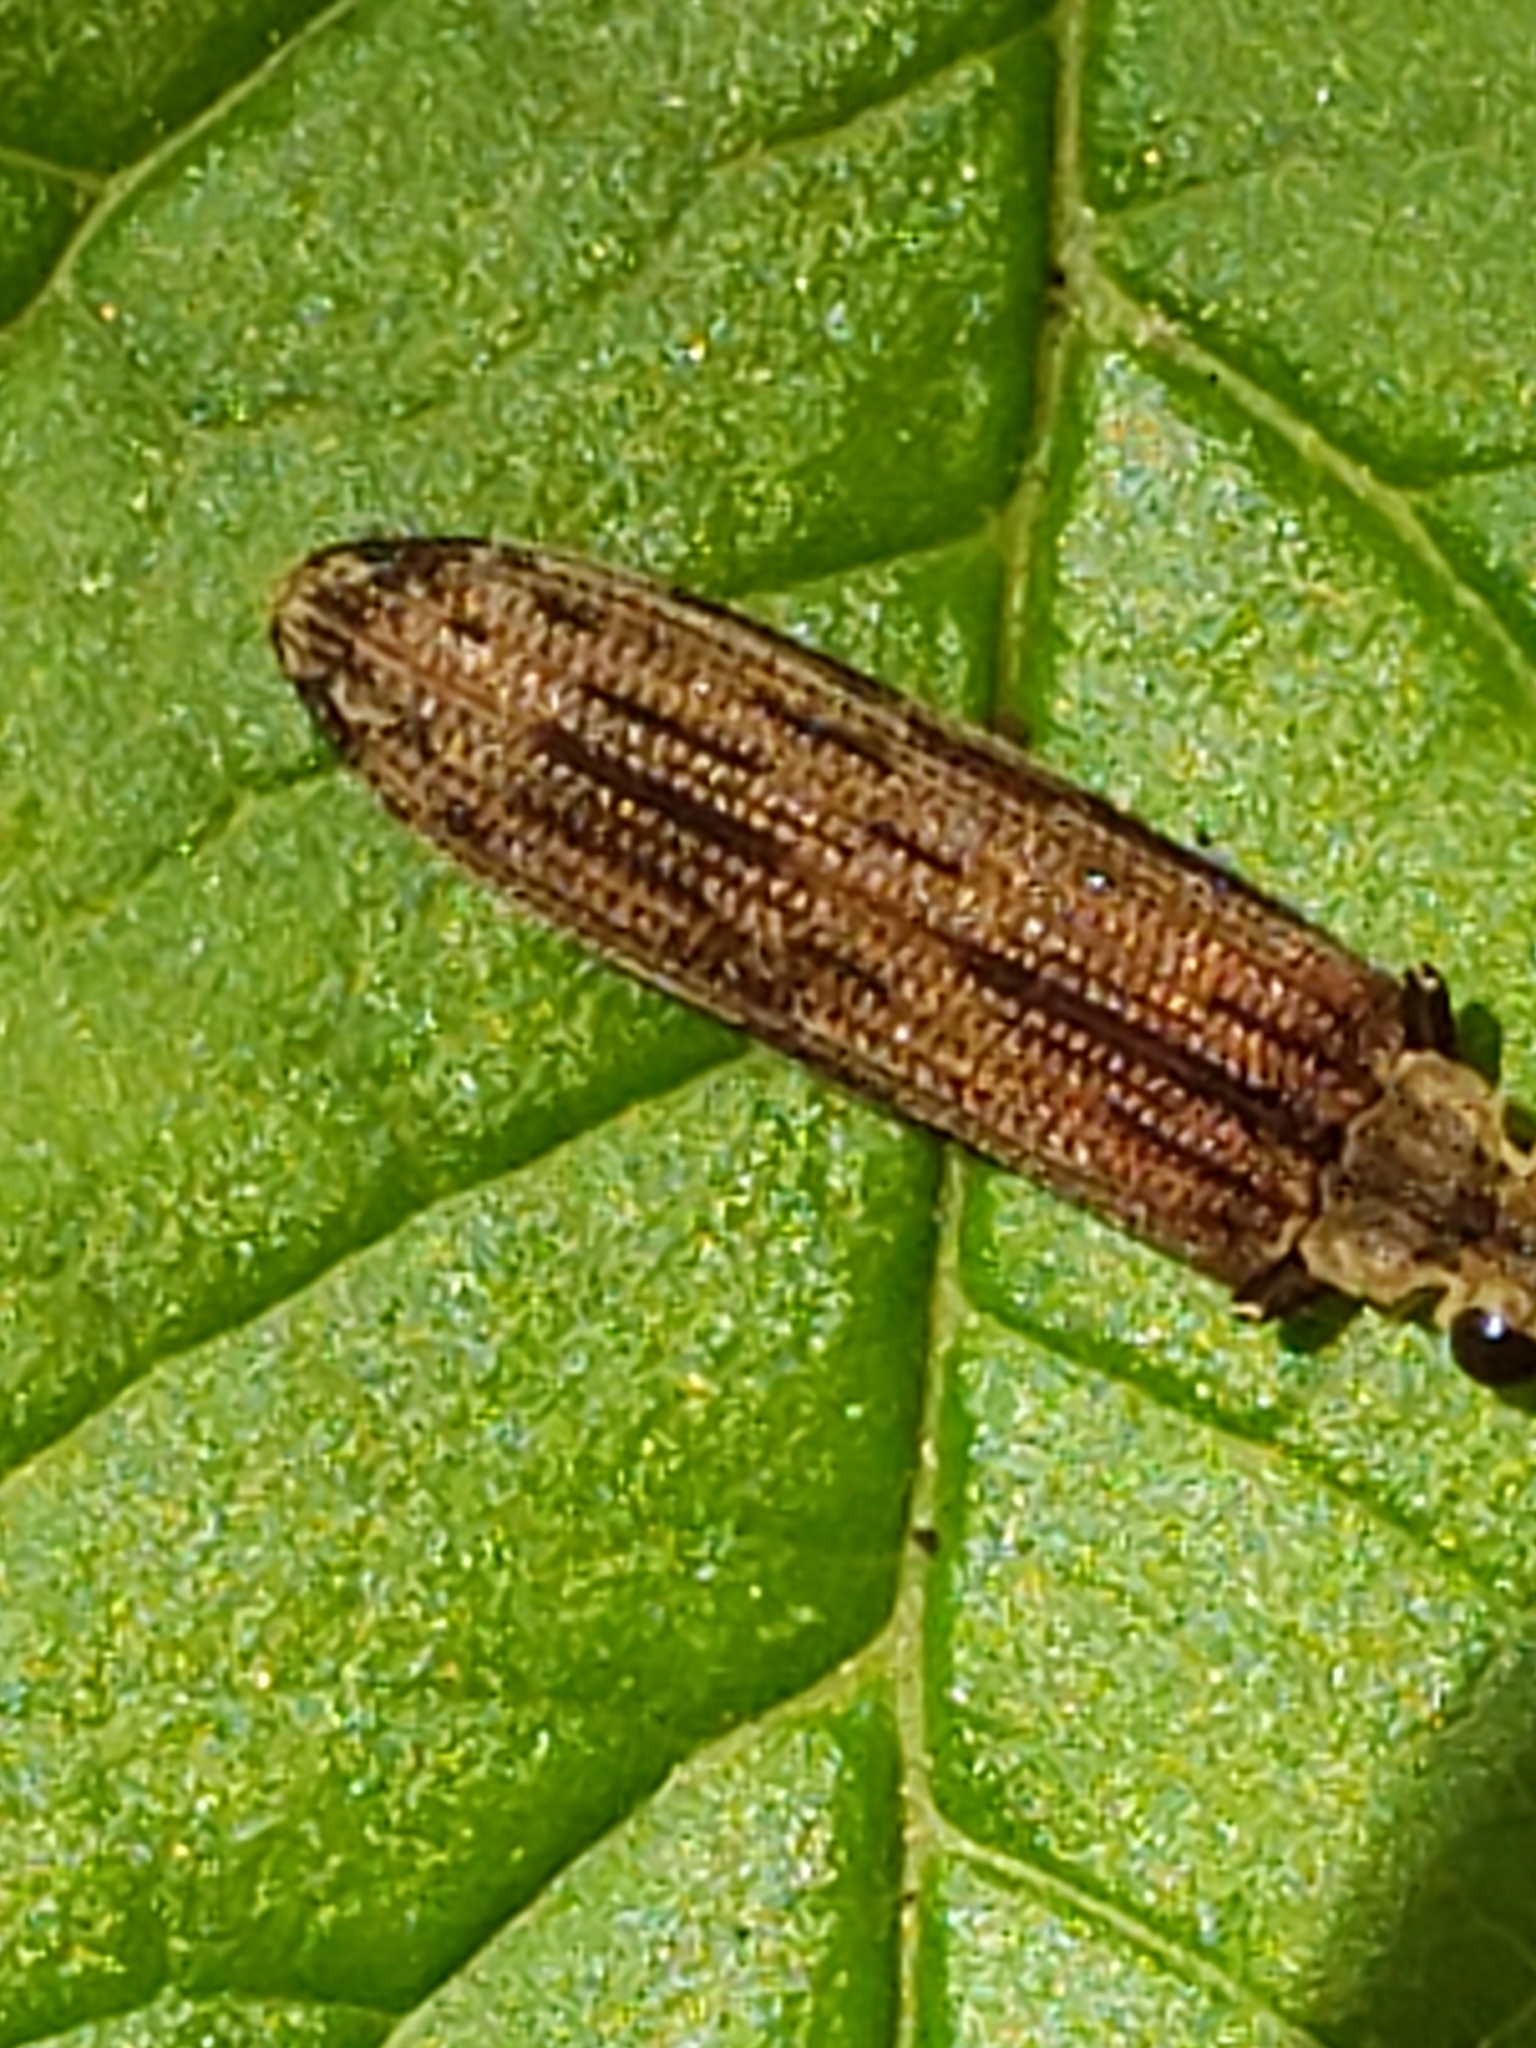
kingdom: Animalia
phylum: Arthropoda
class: Insecta
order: Coleoptera
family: Cupedidae
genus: Tenomerga
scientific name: Tenomerga cinerea
